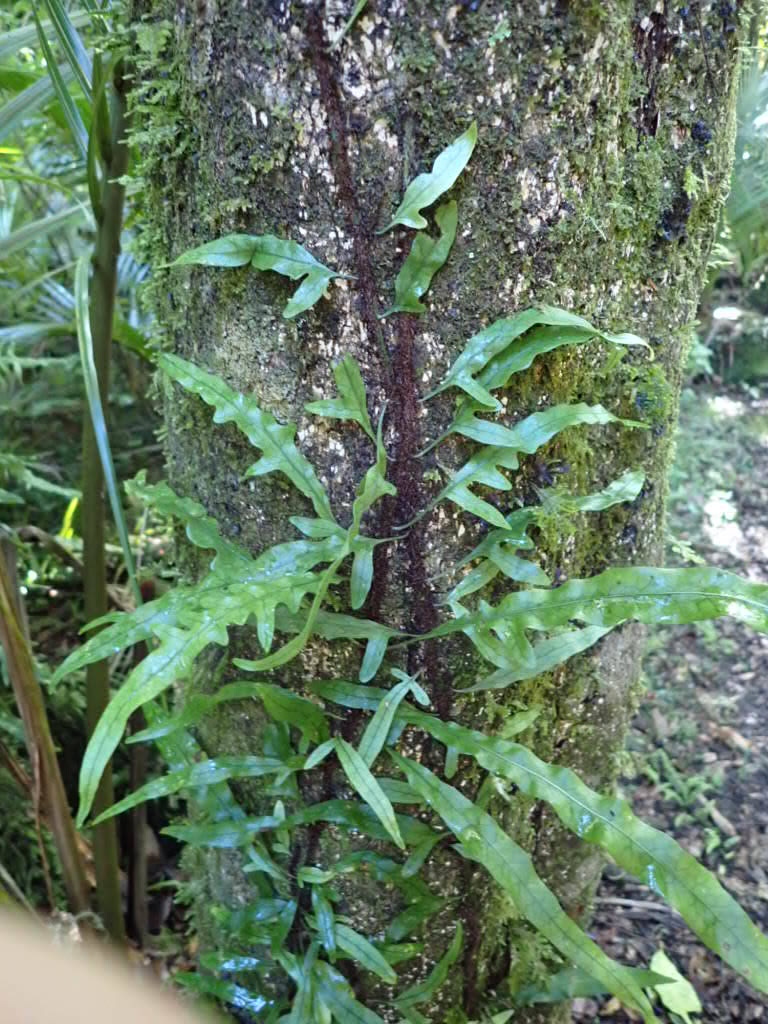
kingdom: Plantae
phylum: Tracheophyta
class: Polypodiopsida
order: Polypodiales
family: Polypodiaceae
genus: Lecanopteris
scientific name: Lecanopteris scandens
